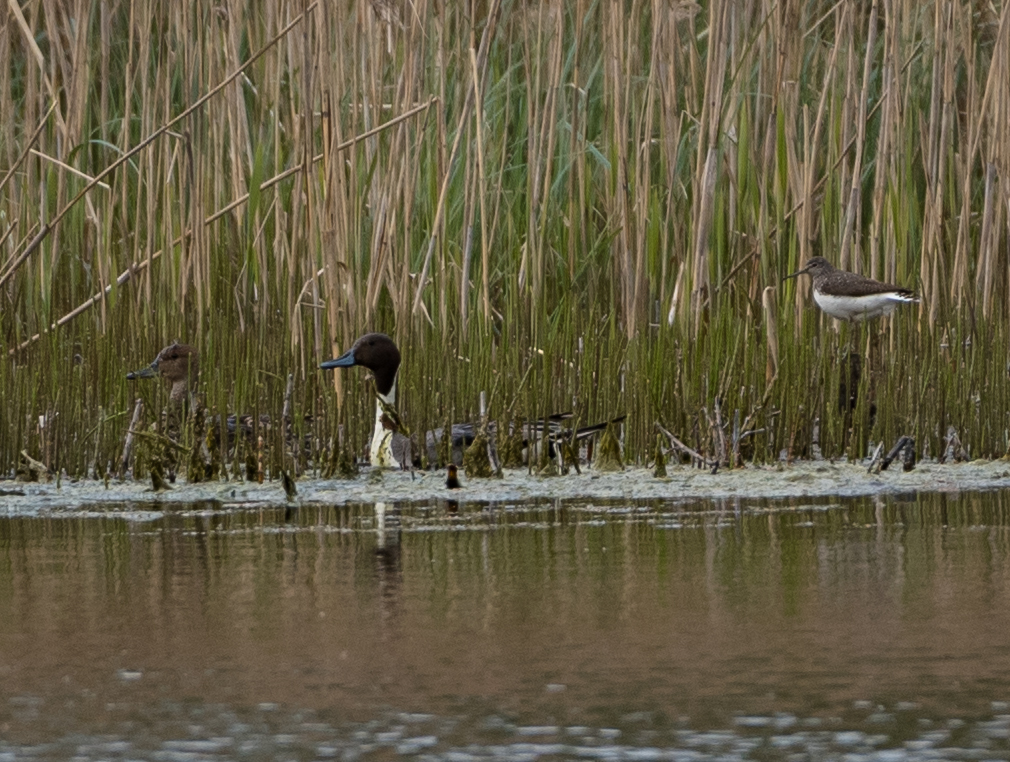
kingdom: Animalia
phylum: Chordata
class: Aves
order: Anseriformes
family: Anatidae
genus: Anas
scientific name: Anas acuta
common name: Northern pintail
